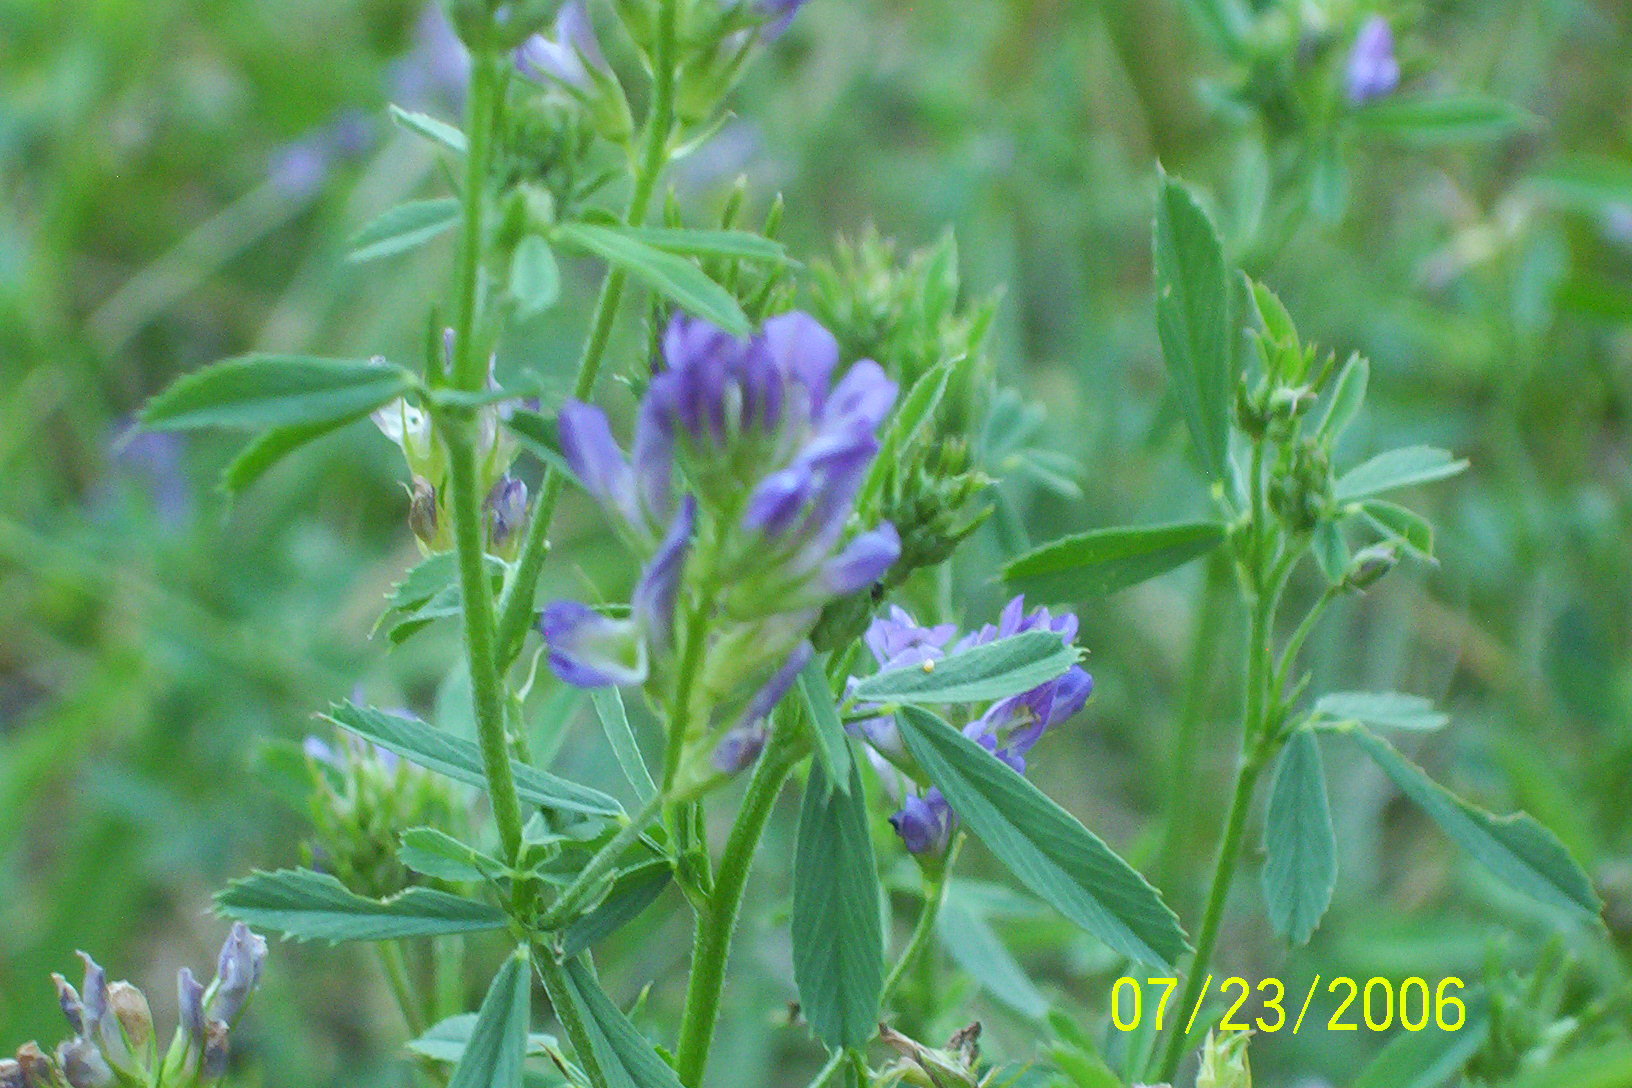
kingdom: Plantae
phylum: Tracheophyta
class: Magnoliopsida
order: Fabales
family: Fabaceae
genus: Medicago
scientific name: Medicago sativa
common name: Alfalfa
